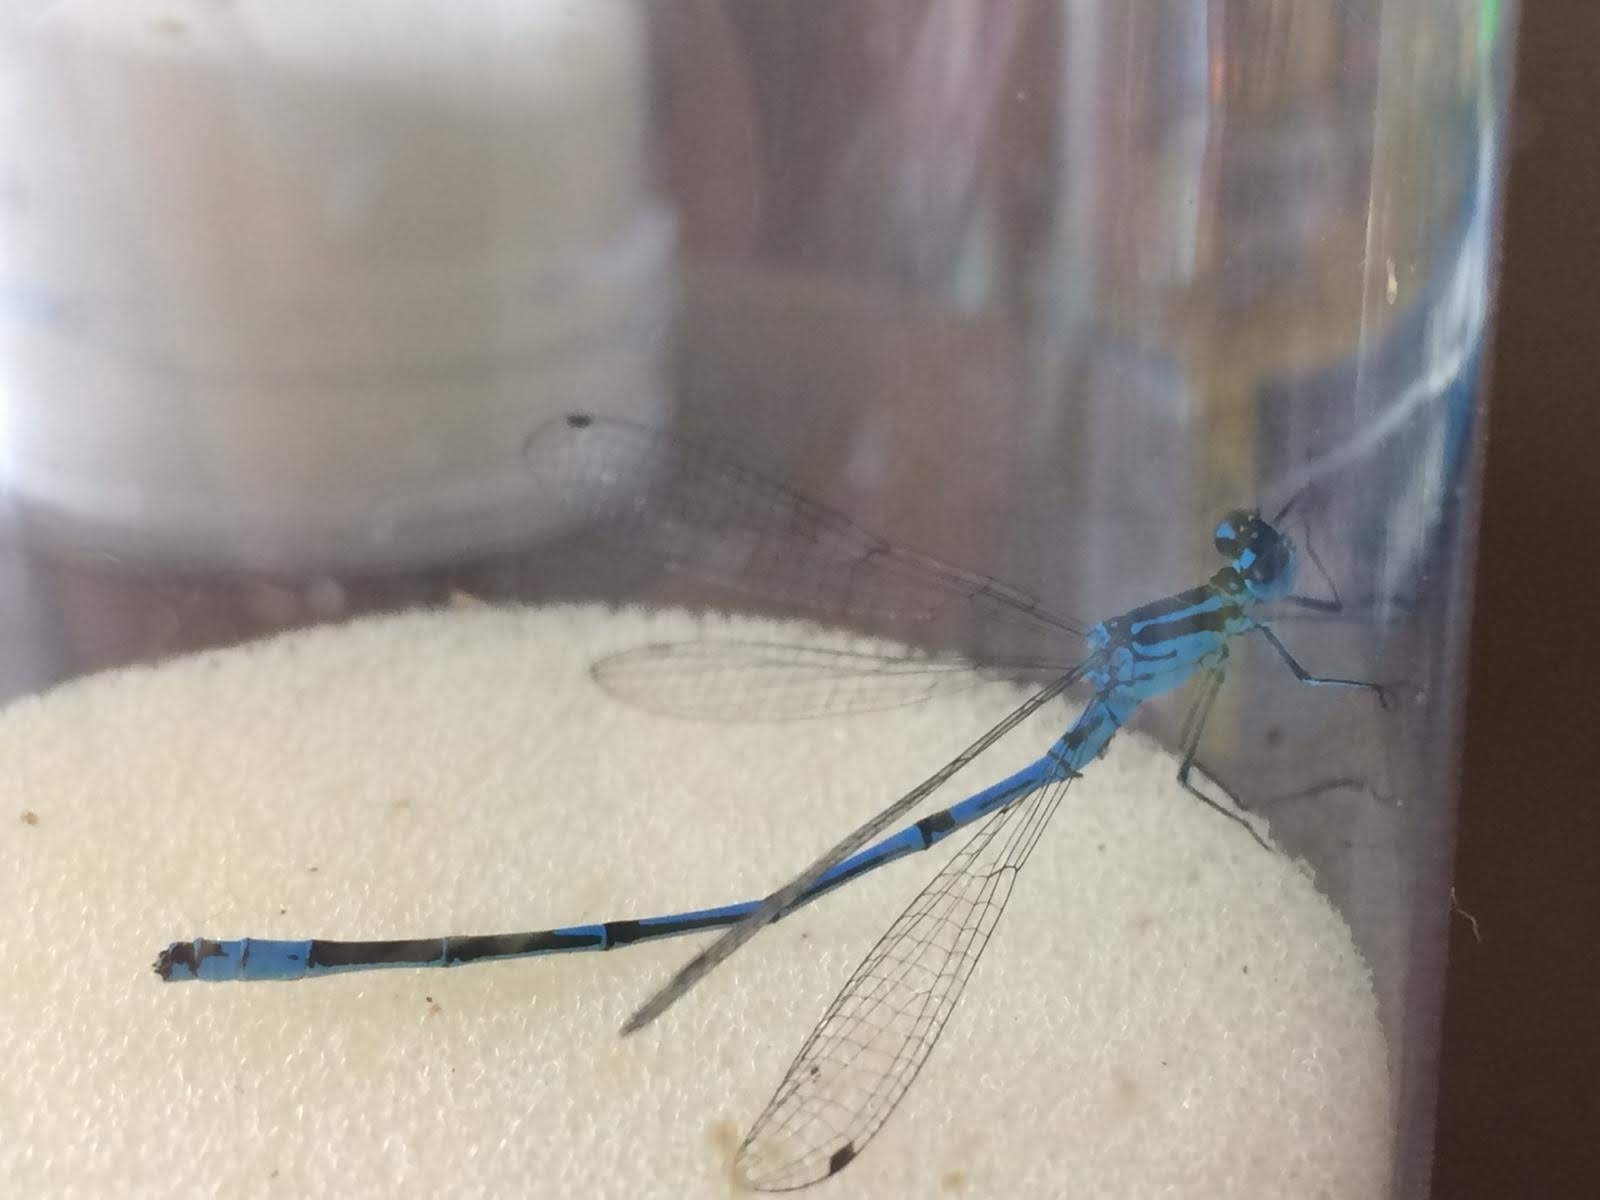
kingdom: Animalia
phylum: Arthropoda
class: Insecta
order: Odonata
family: Coenagrionidae
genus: Coenagrion
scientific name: Coenagrion puella
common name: Azure damselfly
